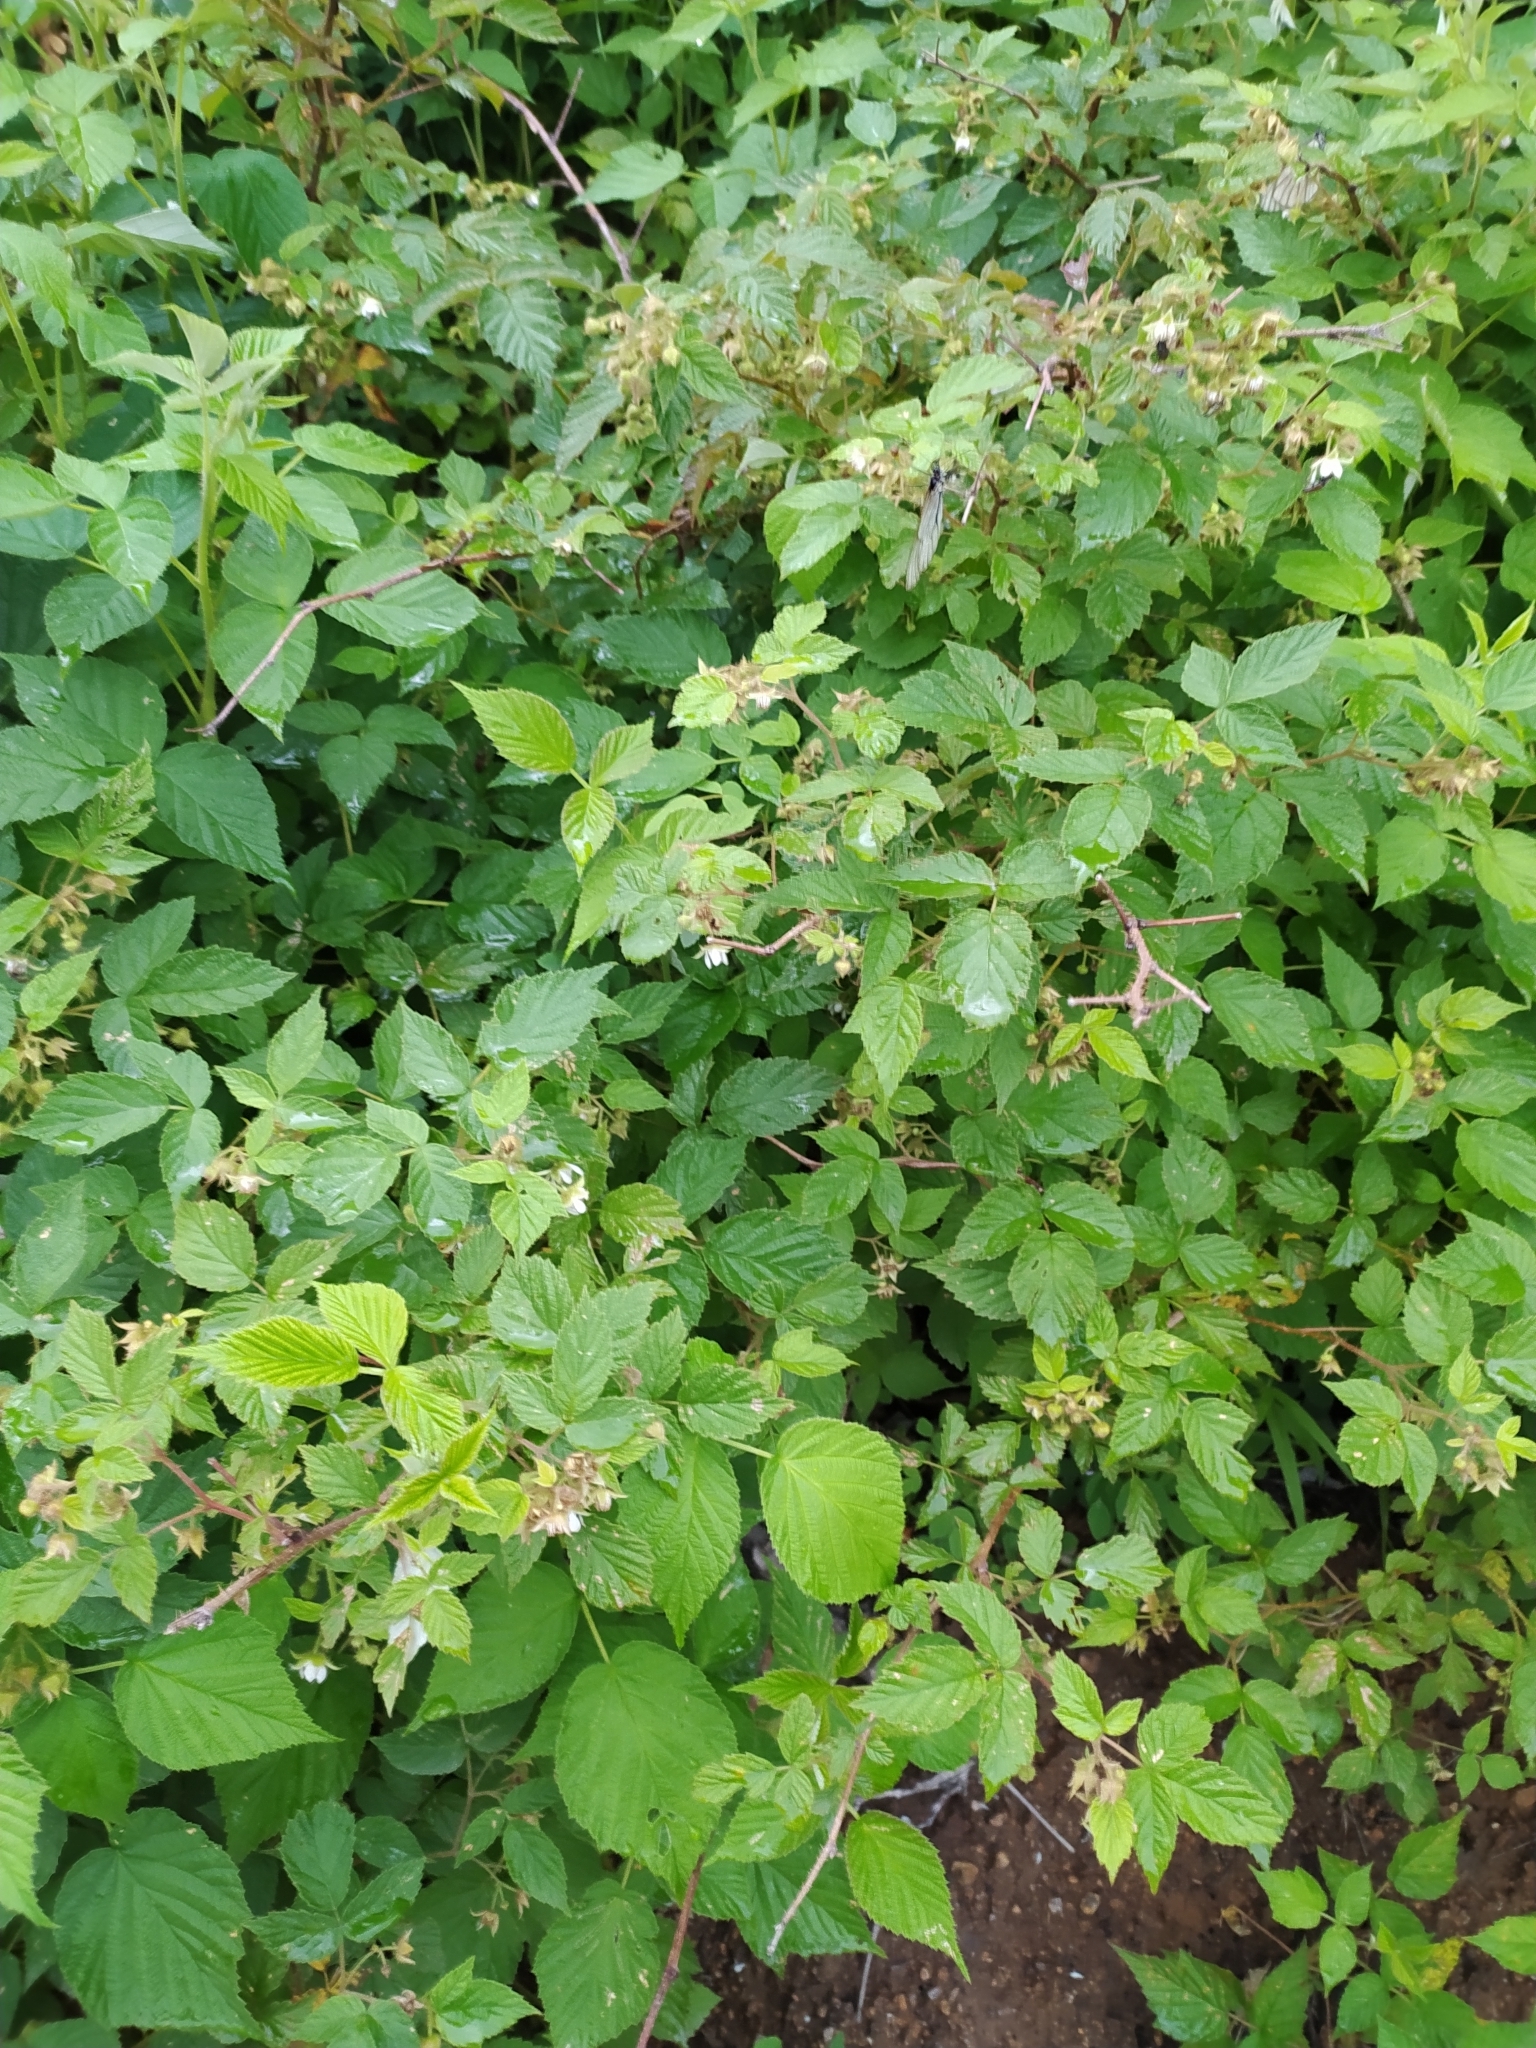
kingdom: Plantae
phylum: Tracheophyta
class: Magnoliopsida
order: Rosales
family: Rosaceae
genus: Rubus
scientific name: Rubus sachalinensis
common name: Red raspberry
